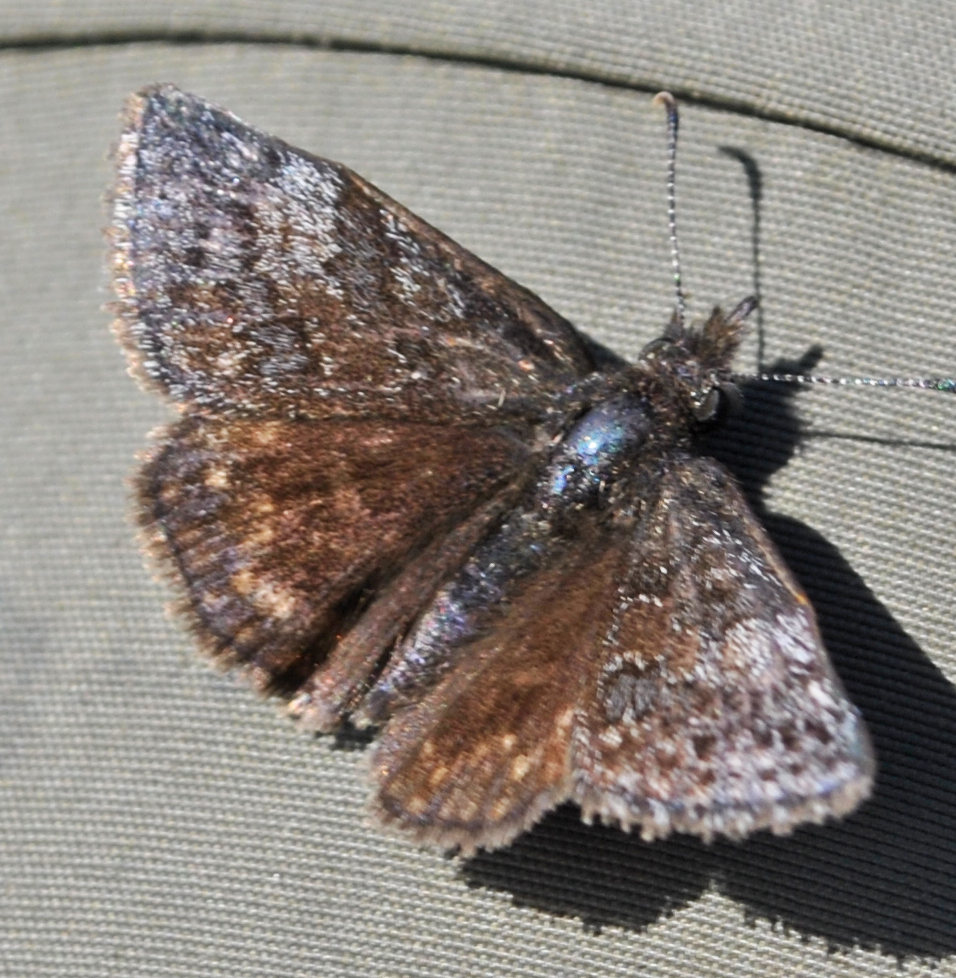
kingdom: Animalia
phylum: Arthropoda
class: Insecta
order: Lepidoptera
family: Hesperiidae
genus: Erynnis
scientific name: Erynnis icelus
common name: Dreamy duskywing
